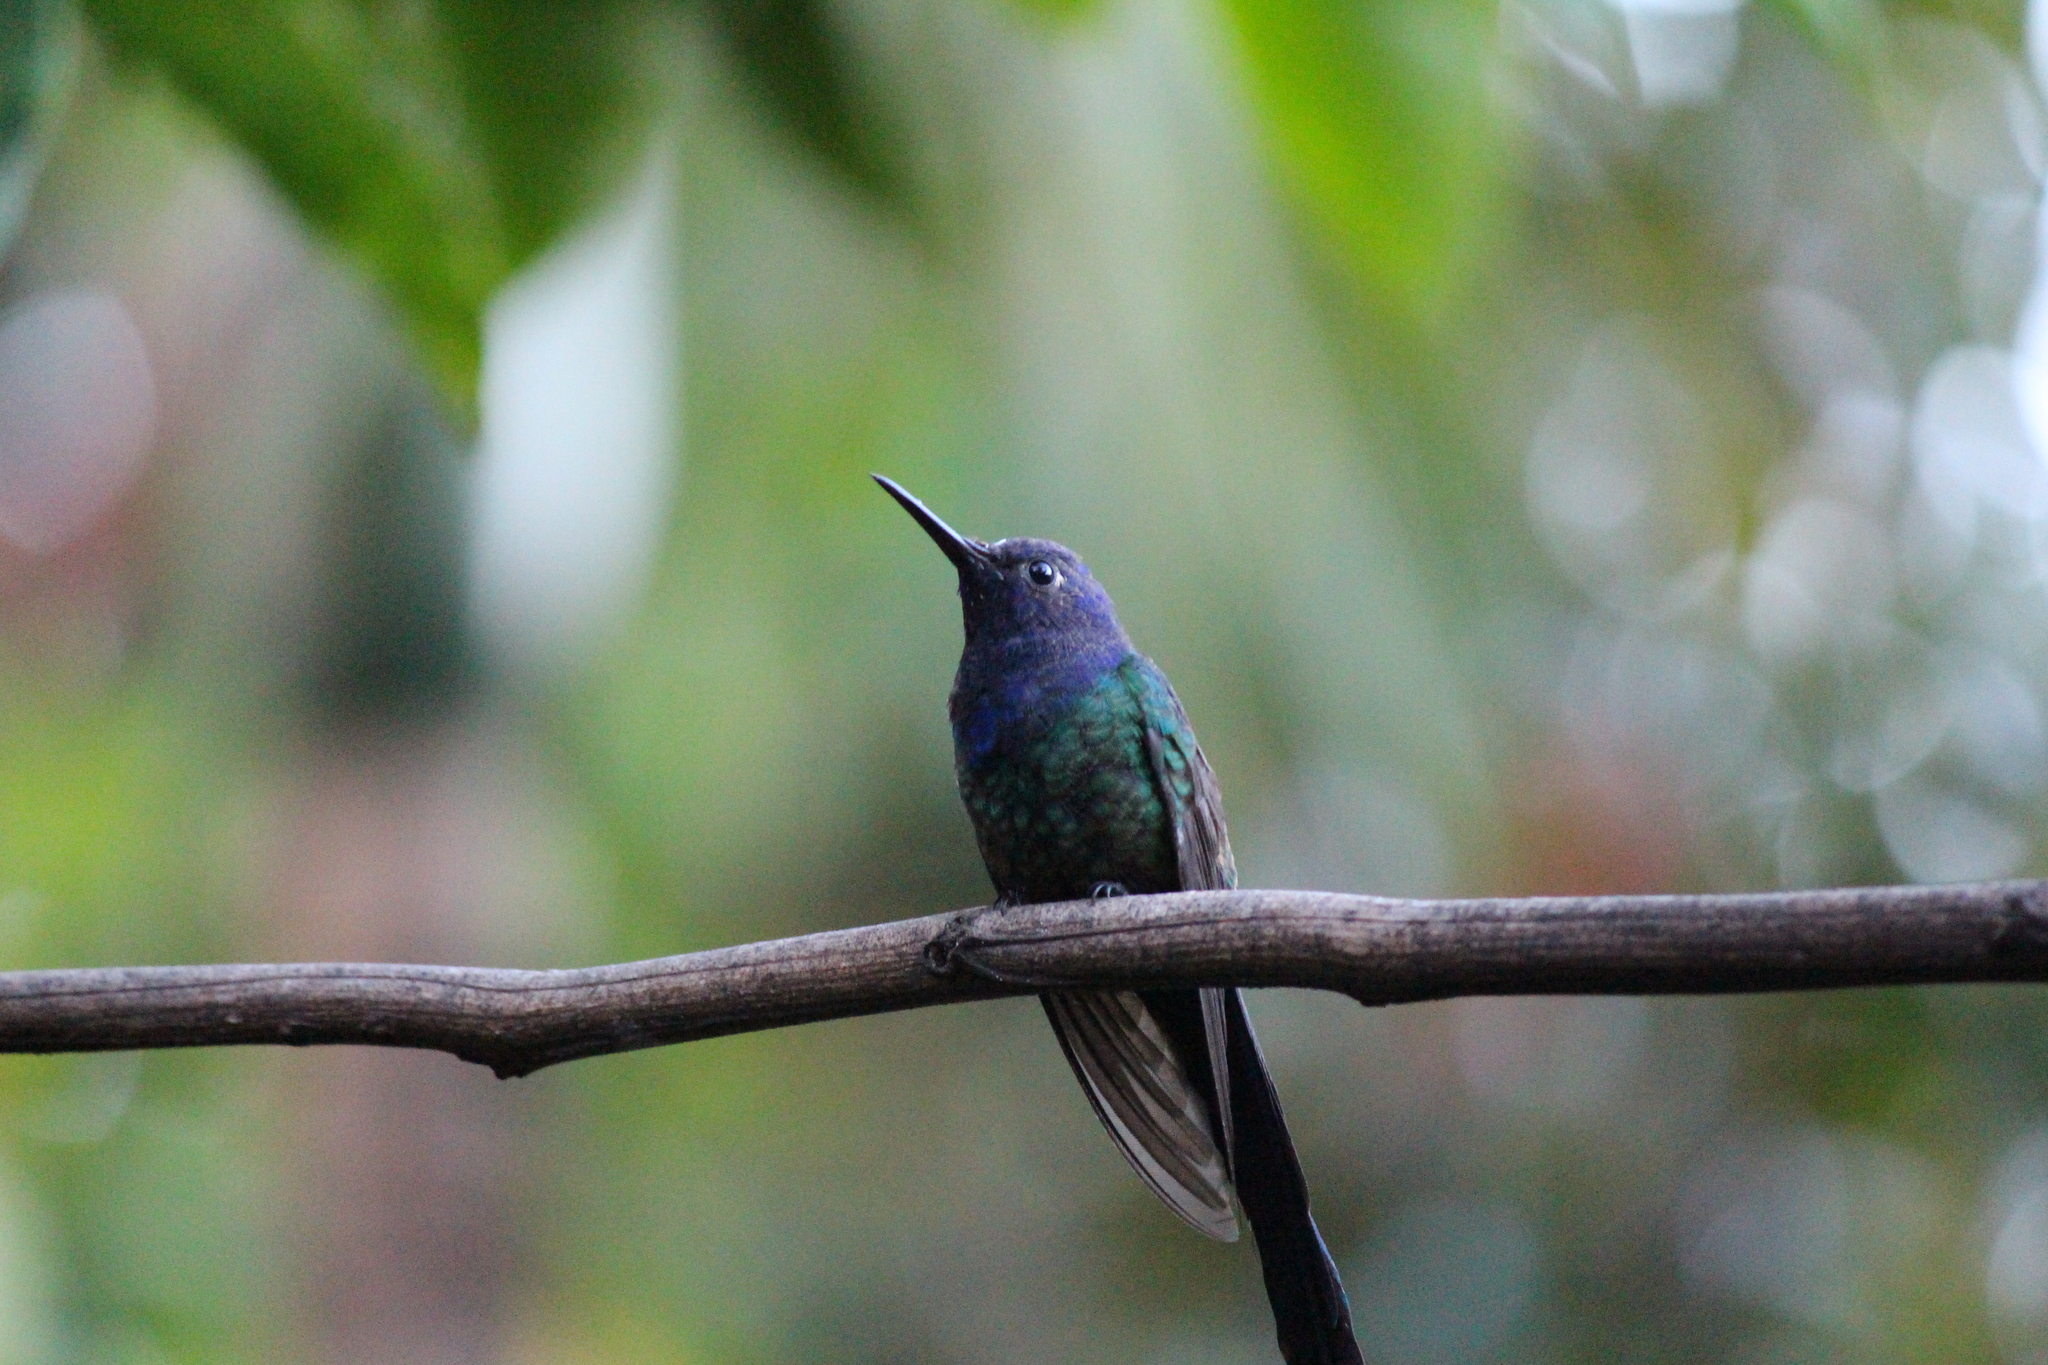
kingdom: Animalia
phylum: Chordata
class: Aves
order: Apodiformes
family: Trochilidae
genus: Eupetomena
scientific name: Eupetomena macroura
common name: Swallow-tailed hummingbird
